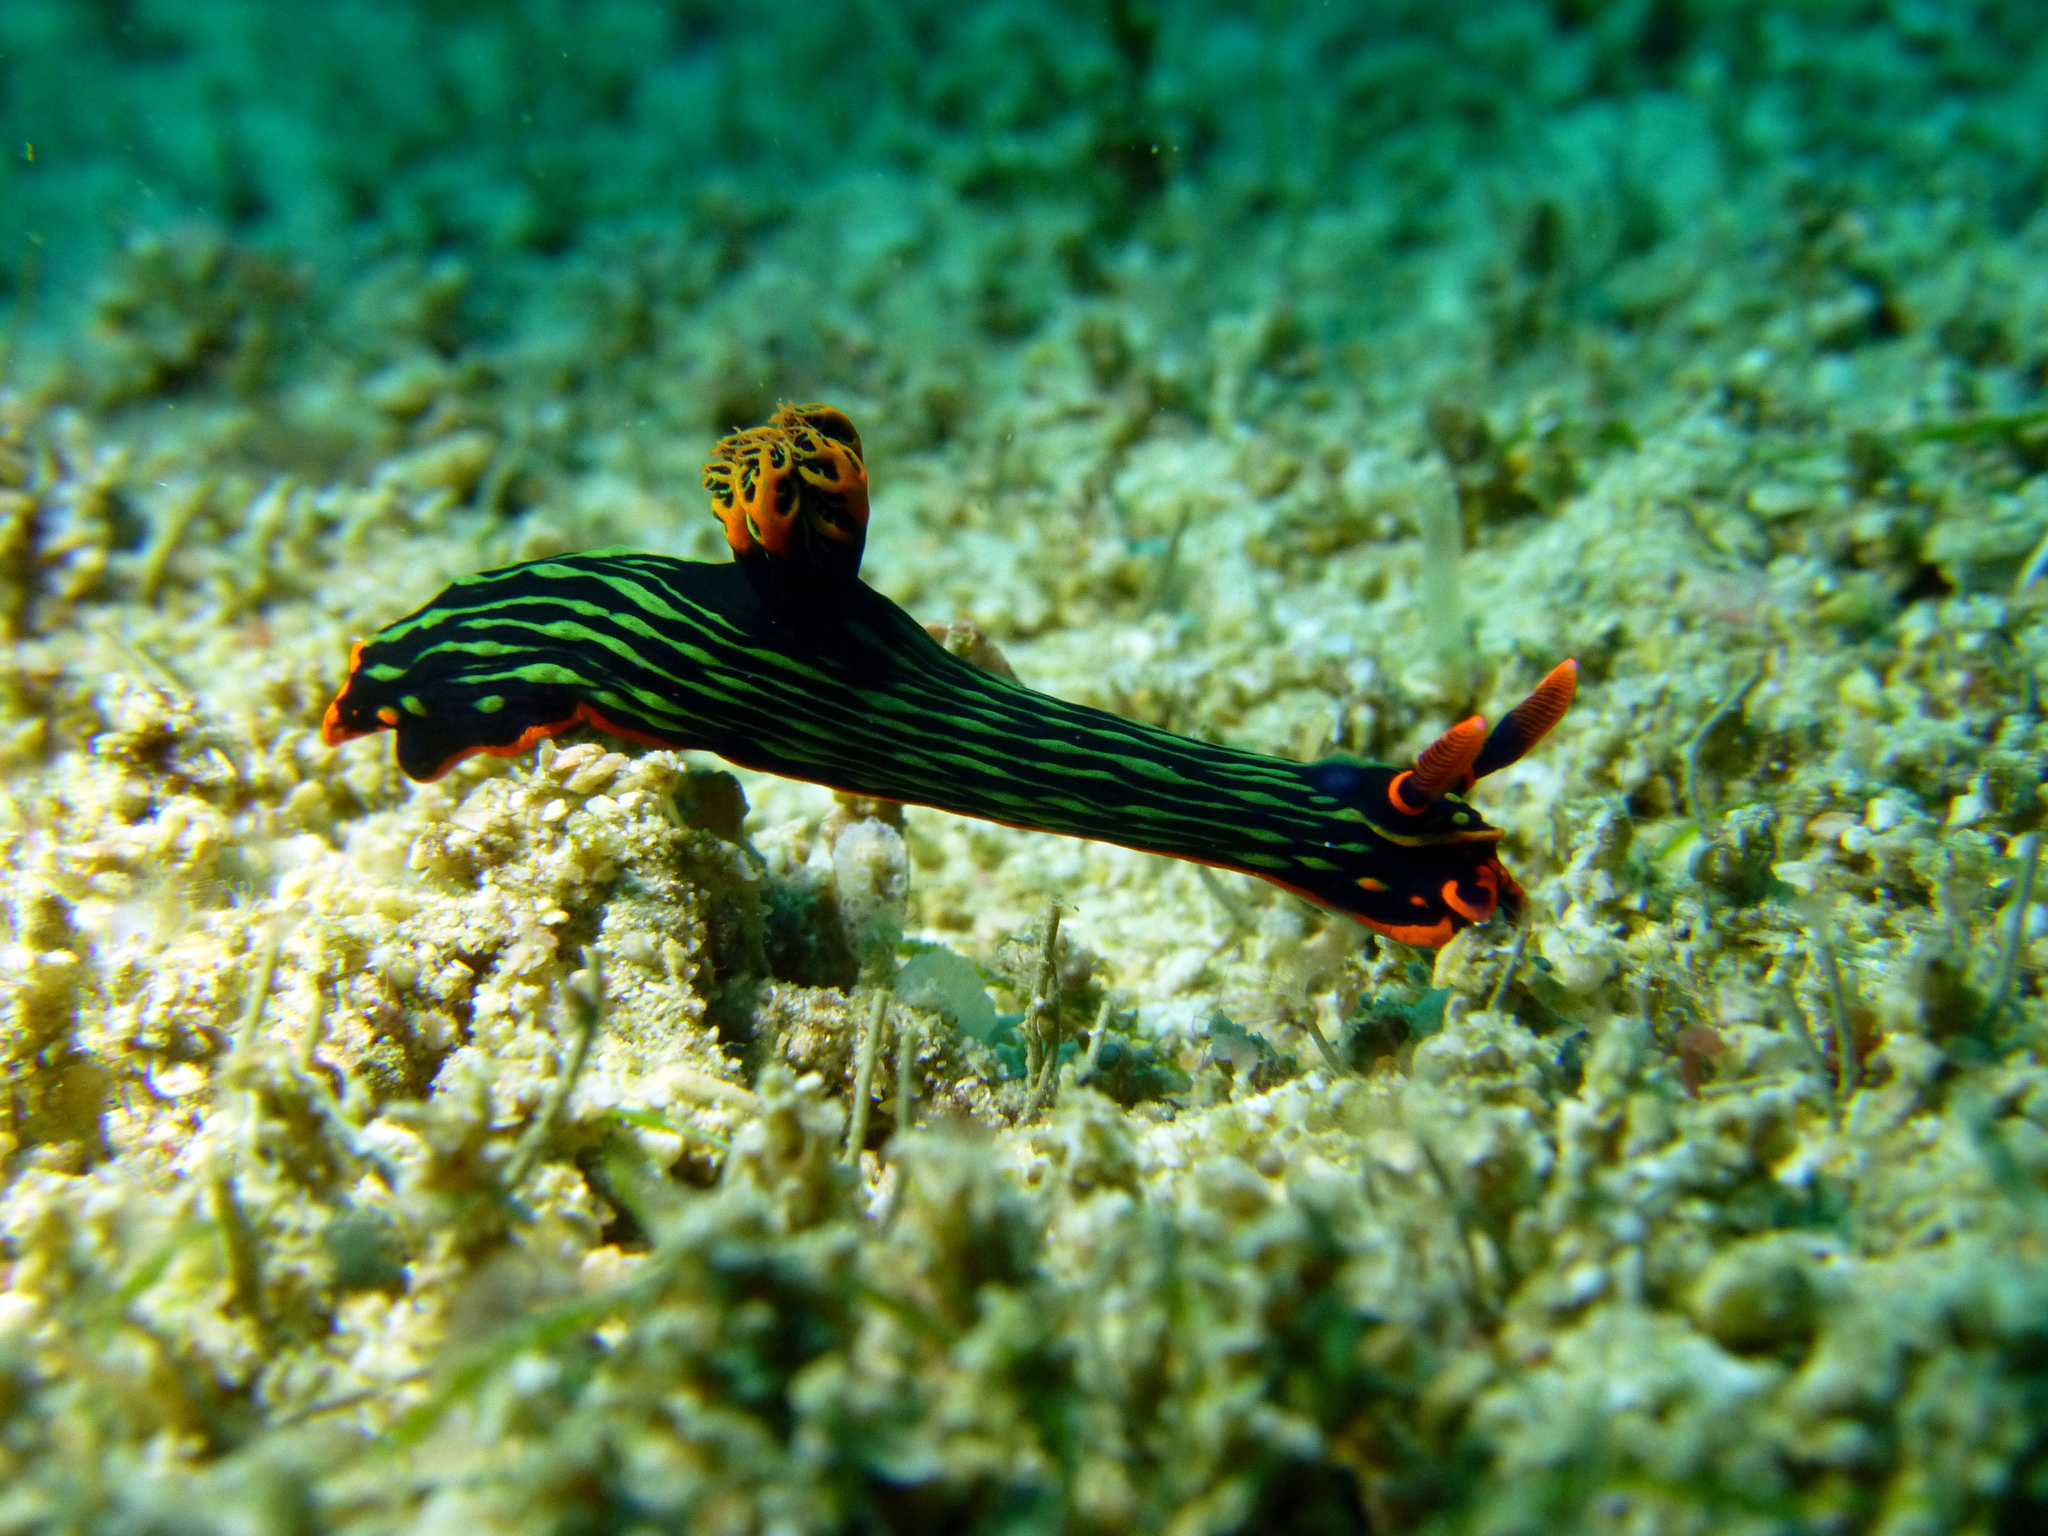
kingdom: Animalia
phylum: Mollusca
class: Gastropoda
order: Nudibranchia
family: Polyceridae
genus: Nembrotha
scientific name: Nembrotha kubaryana
